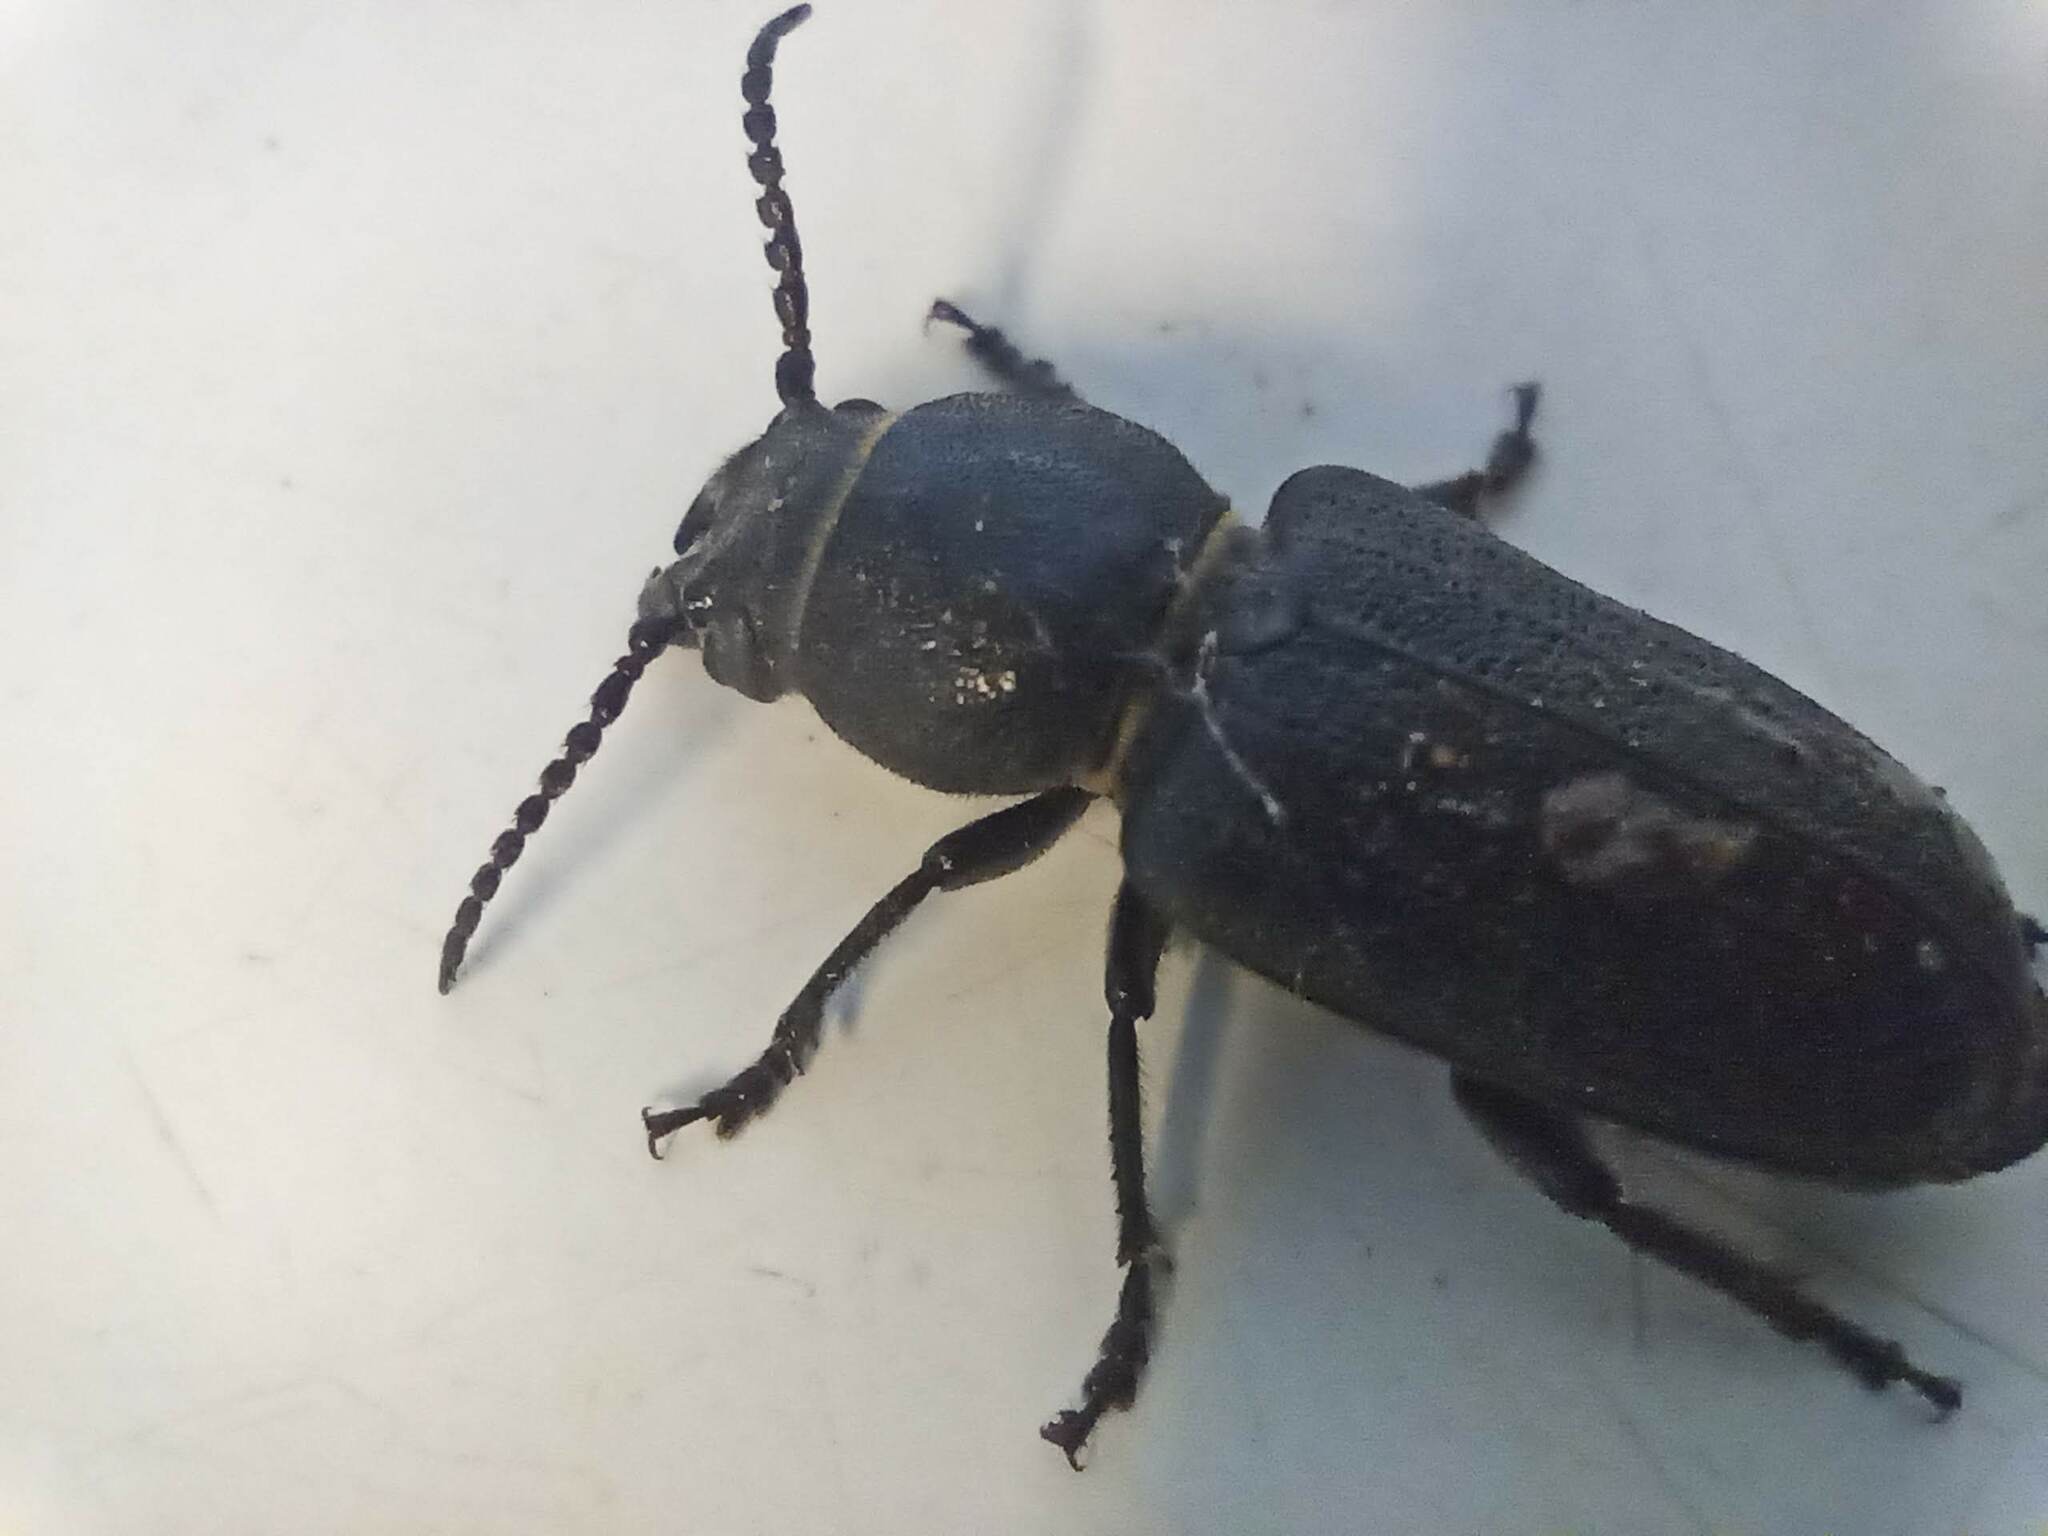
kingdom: Animalia
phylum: Arthropoda
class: Insecta
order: Coleoptera
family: Cerambycidae
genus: Spondylis
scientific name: Spondylis buprestoides
